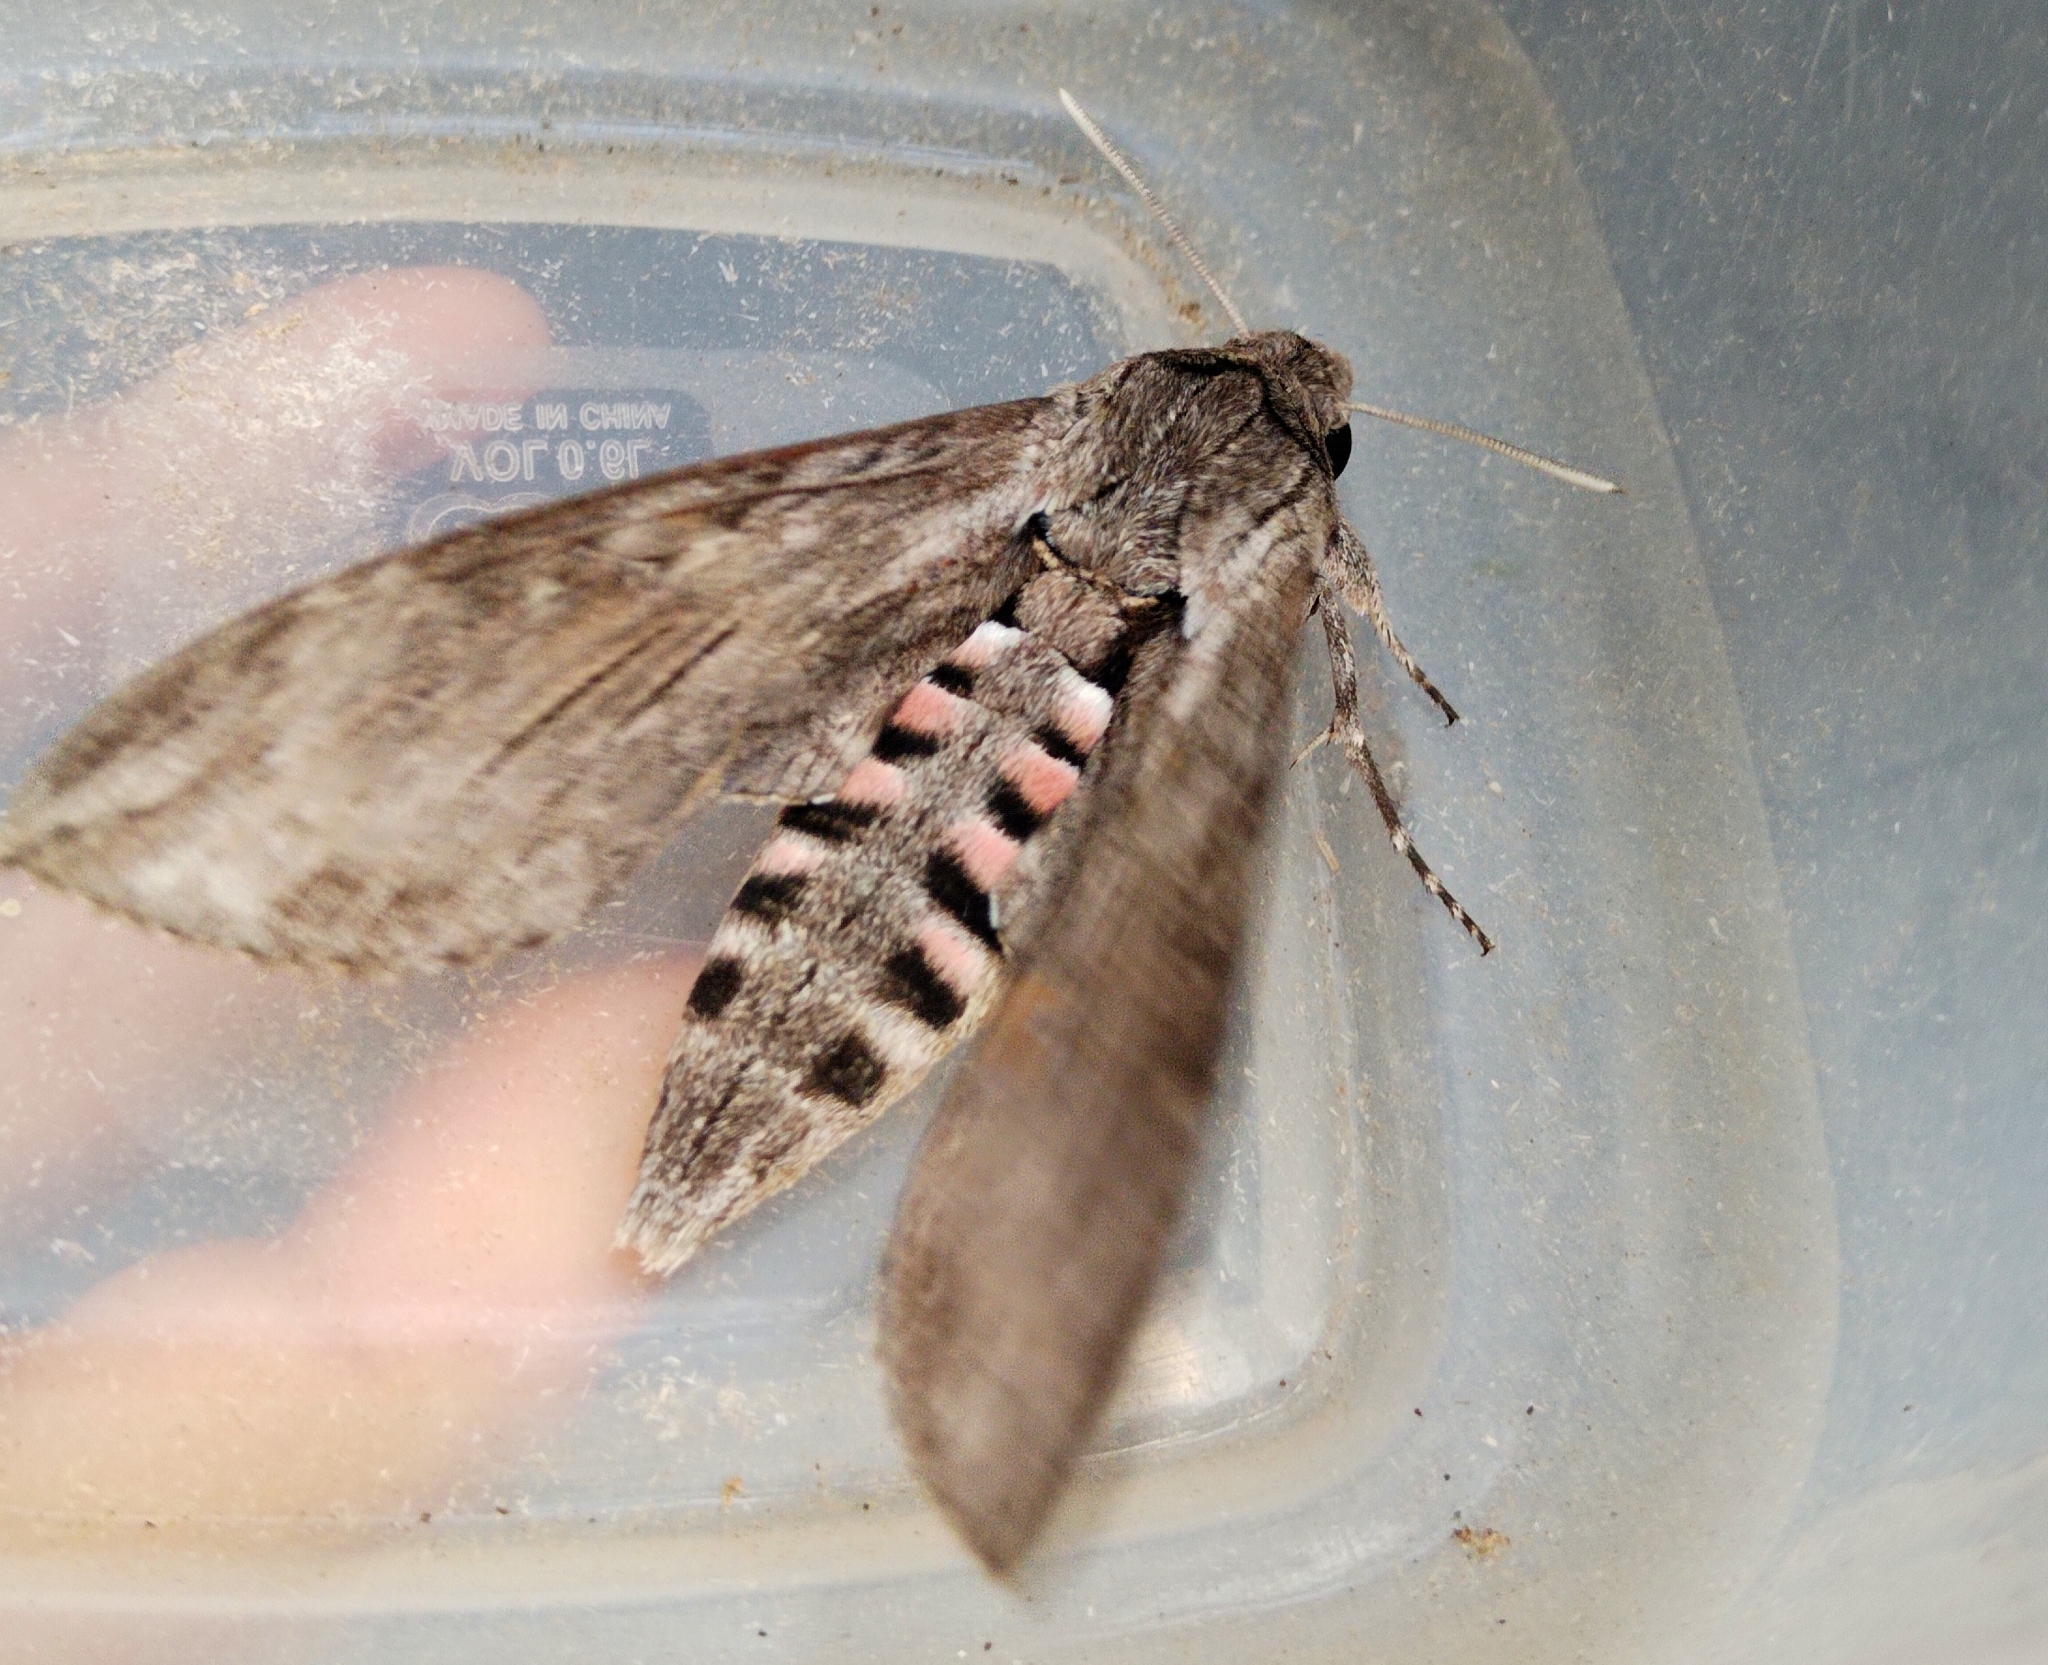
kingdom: Animalia
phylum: Arthropoda
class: Insecta
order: Lepidoptera
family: Sphingidae
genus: Agrius
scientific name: Agrius convolvuli
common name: Convolvulus hawkmoth
